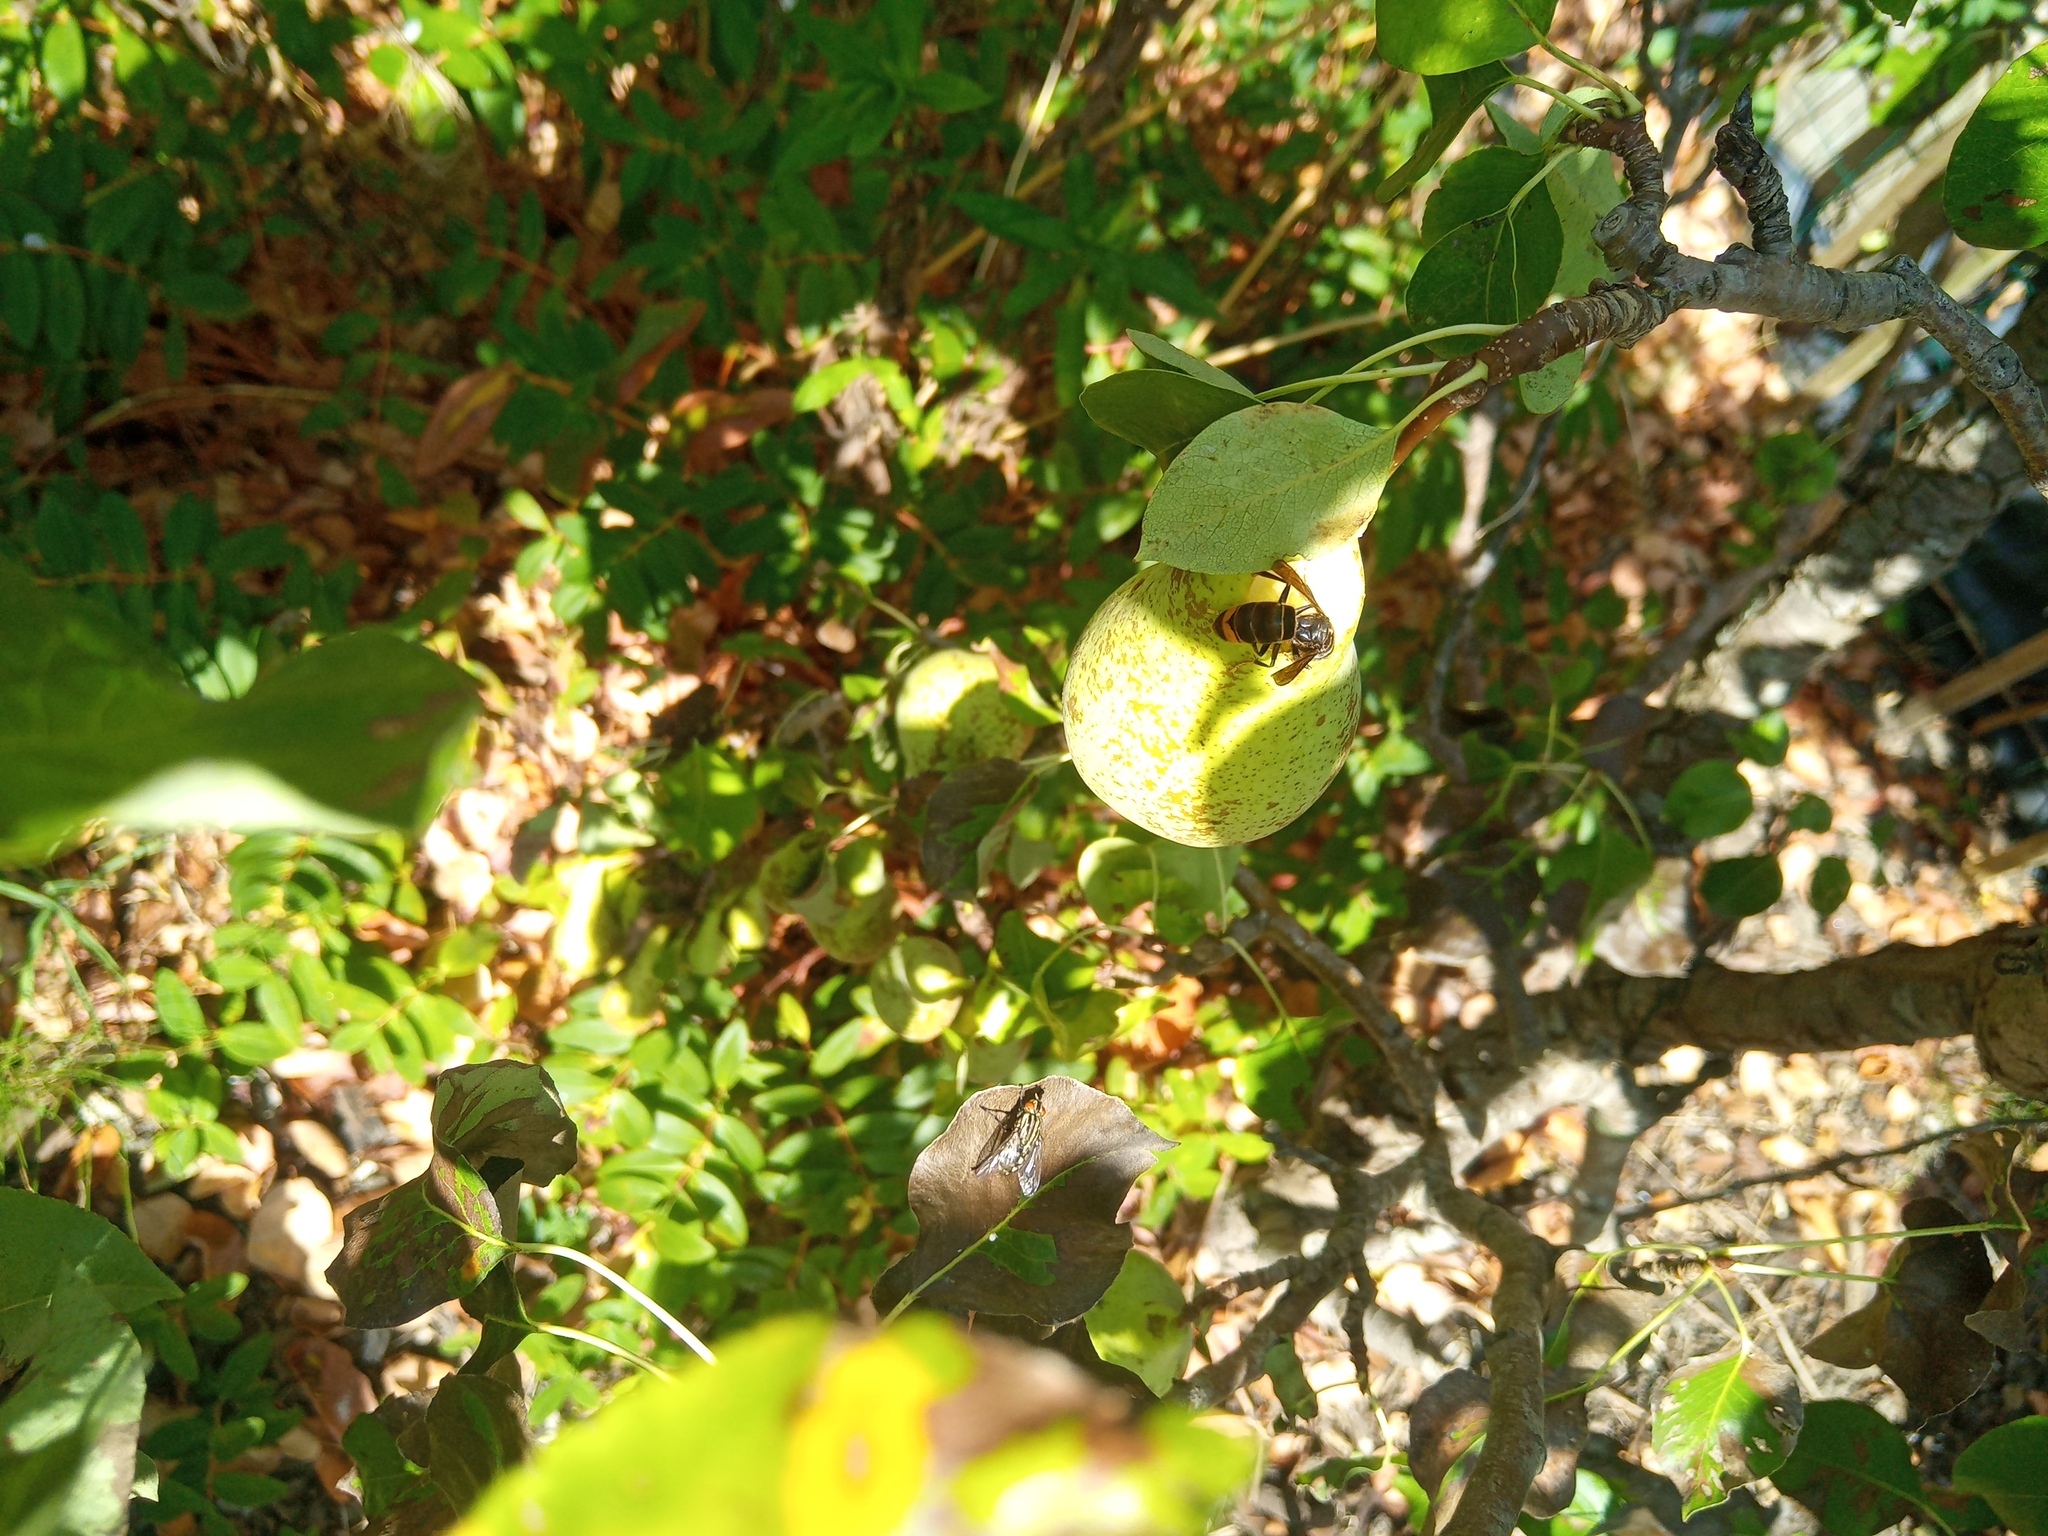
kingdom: Animalia
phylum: Arthropoda
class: Insecta
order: Hymenoptera
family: Vespidae
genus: Vespa
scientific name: Vespa velutina
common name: Asian hornet
